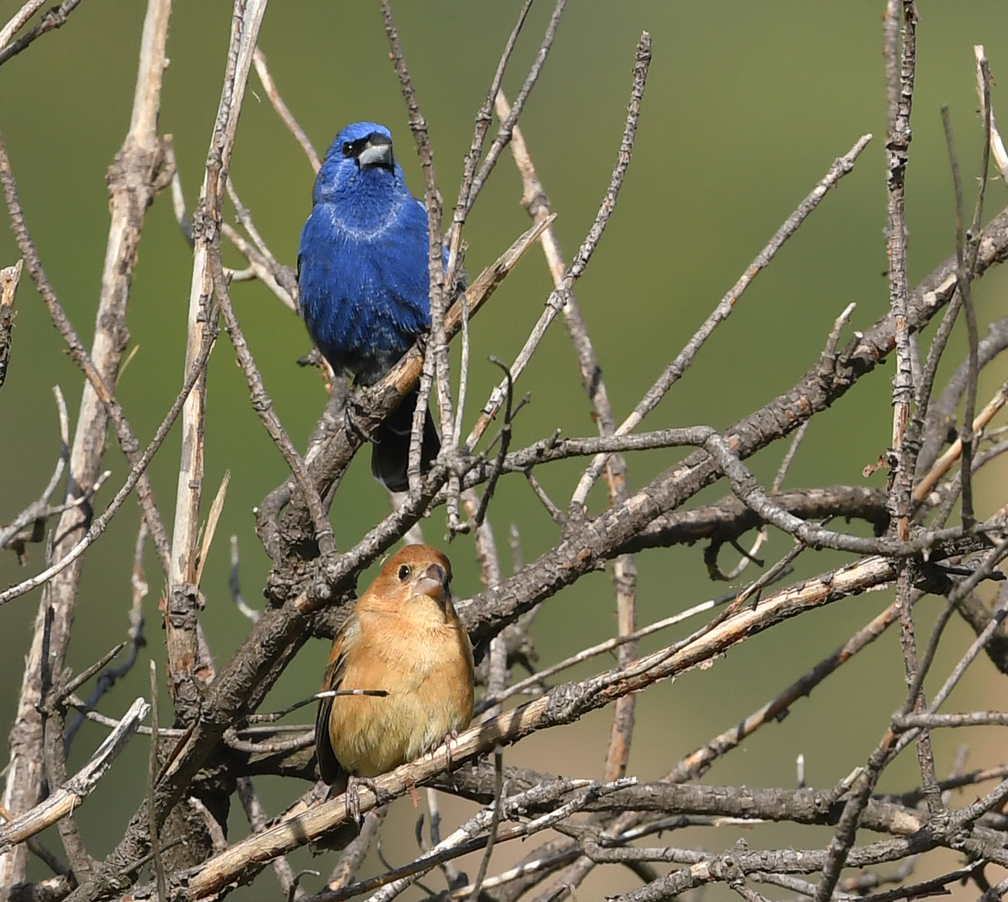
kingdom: Animalia
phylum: Chordata
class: Aves
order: Passeriformes
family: Cardinalidae
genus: Passerina
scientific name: Passerina caerulea
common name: Blue grosbeak
